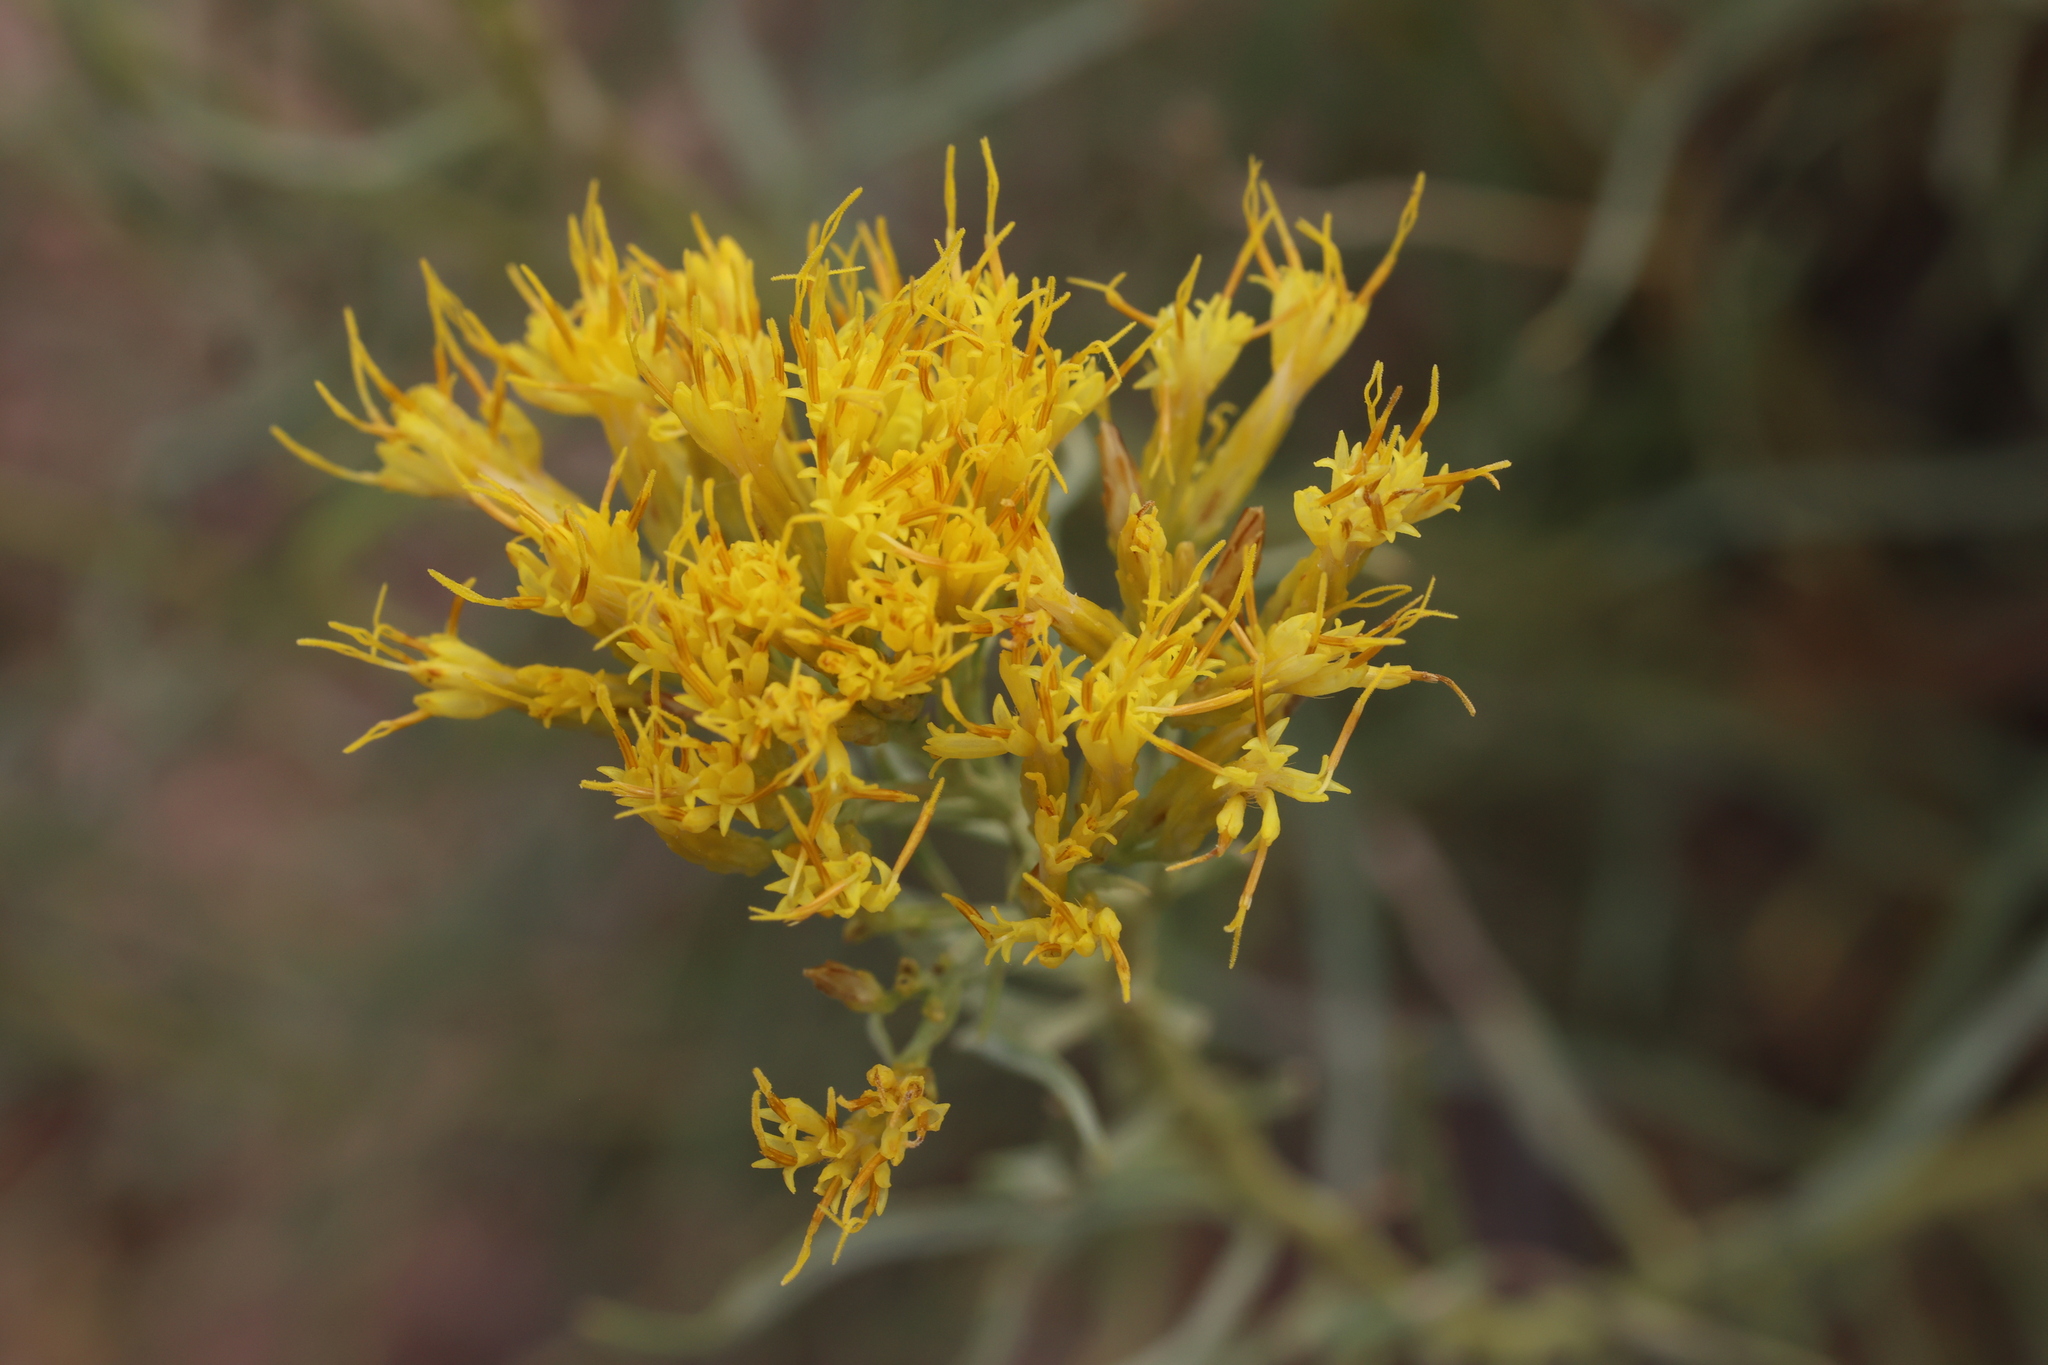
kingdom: Plantae
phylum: Tracheophyta
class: Magnoliopsida
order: Asterales
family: Asteraceae
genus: Ericameria
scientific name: Ericameria nauseosa
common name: Rubber rabbitbrush
